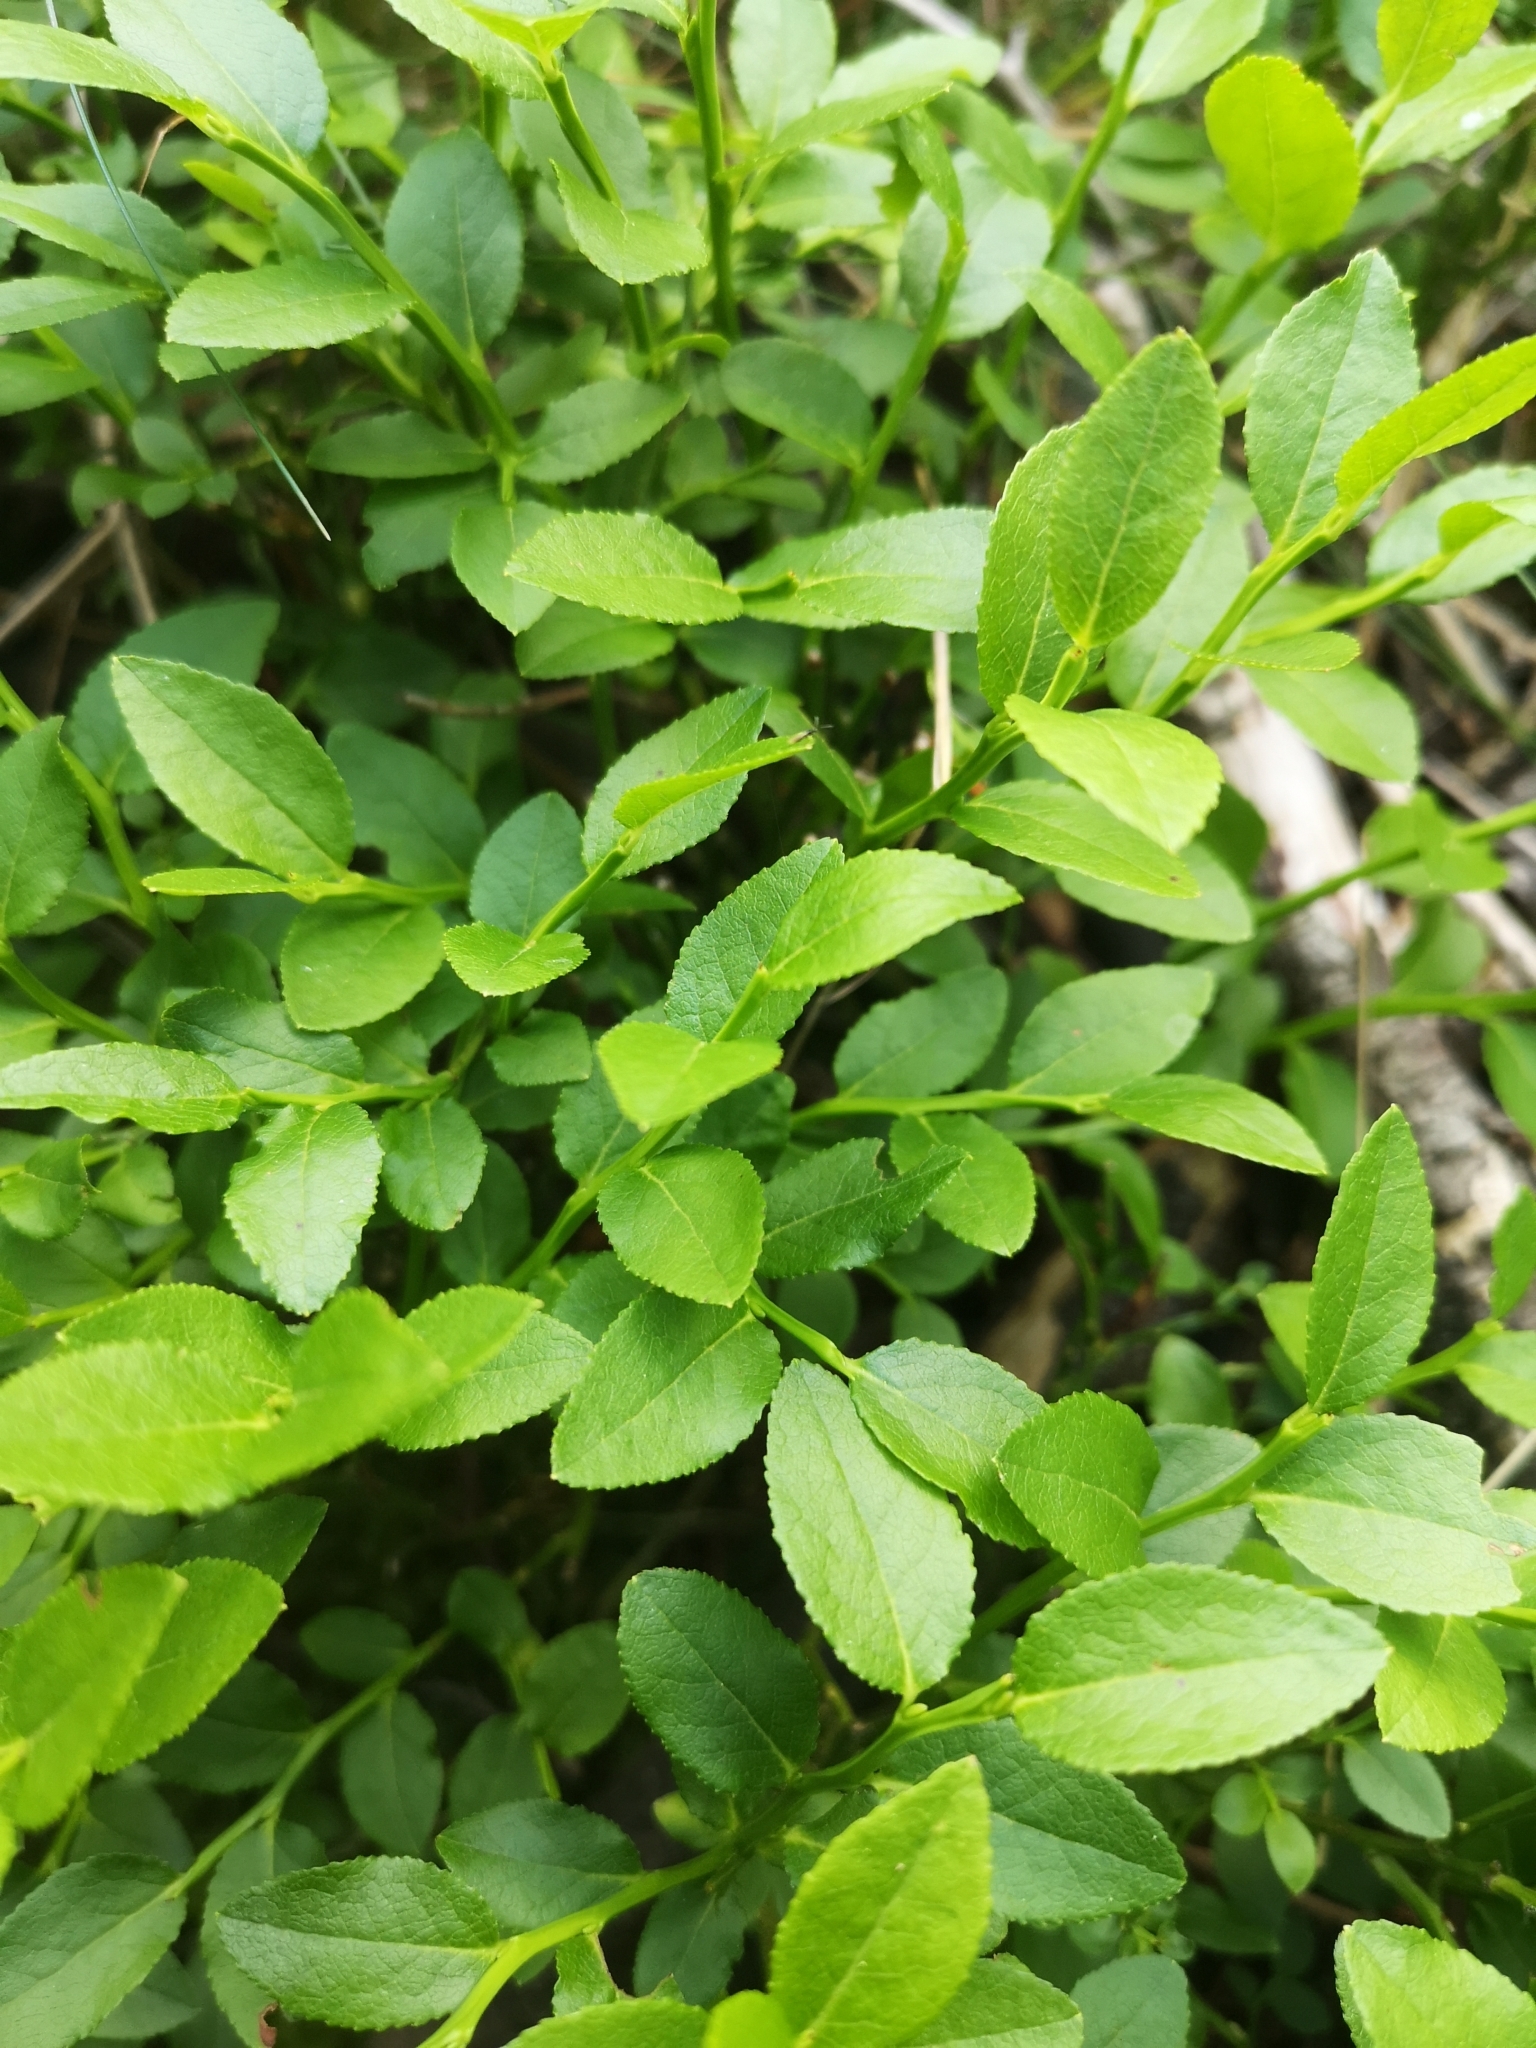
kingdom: Plantae
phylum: Tracheophyta
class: Magnoliopsida
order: Ericales
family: Ericaceae
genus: Vaccinium
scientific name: Vaccinium myrtillus
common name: Bilberry
